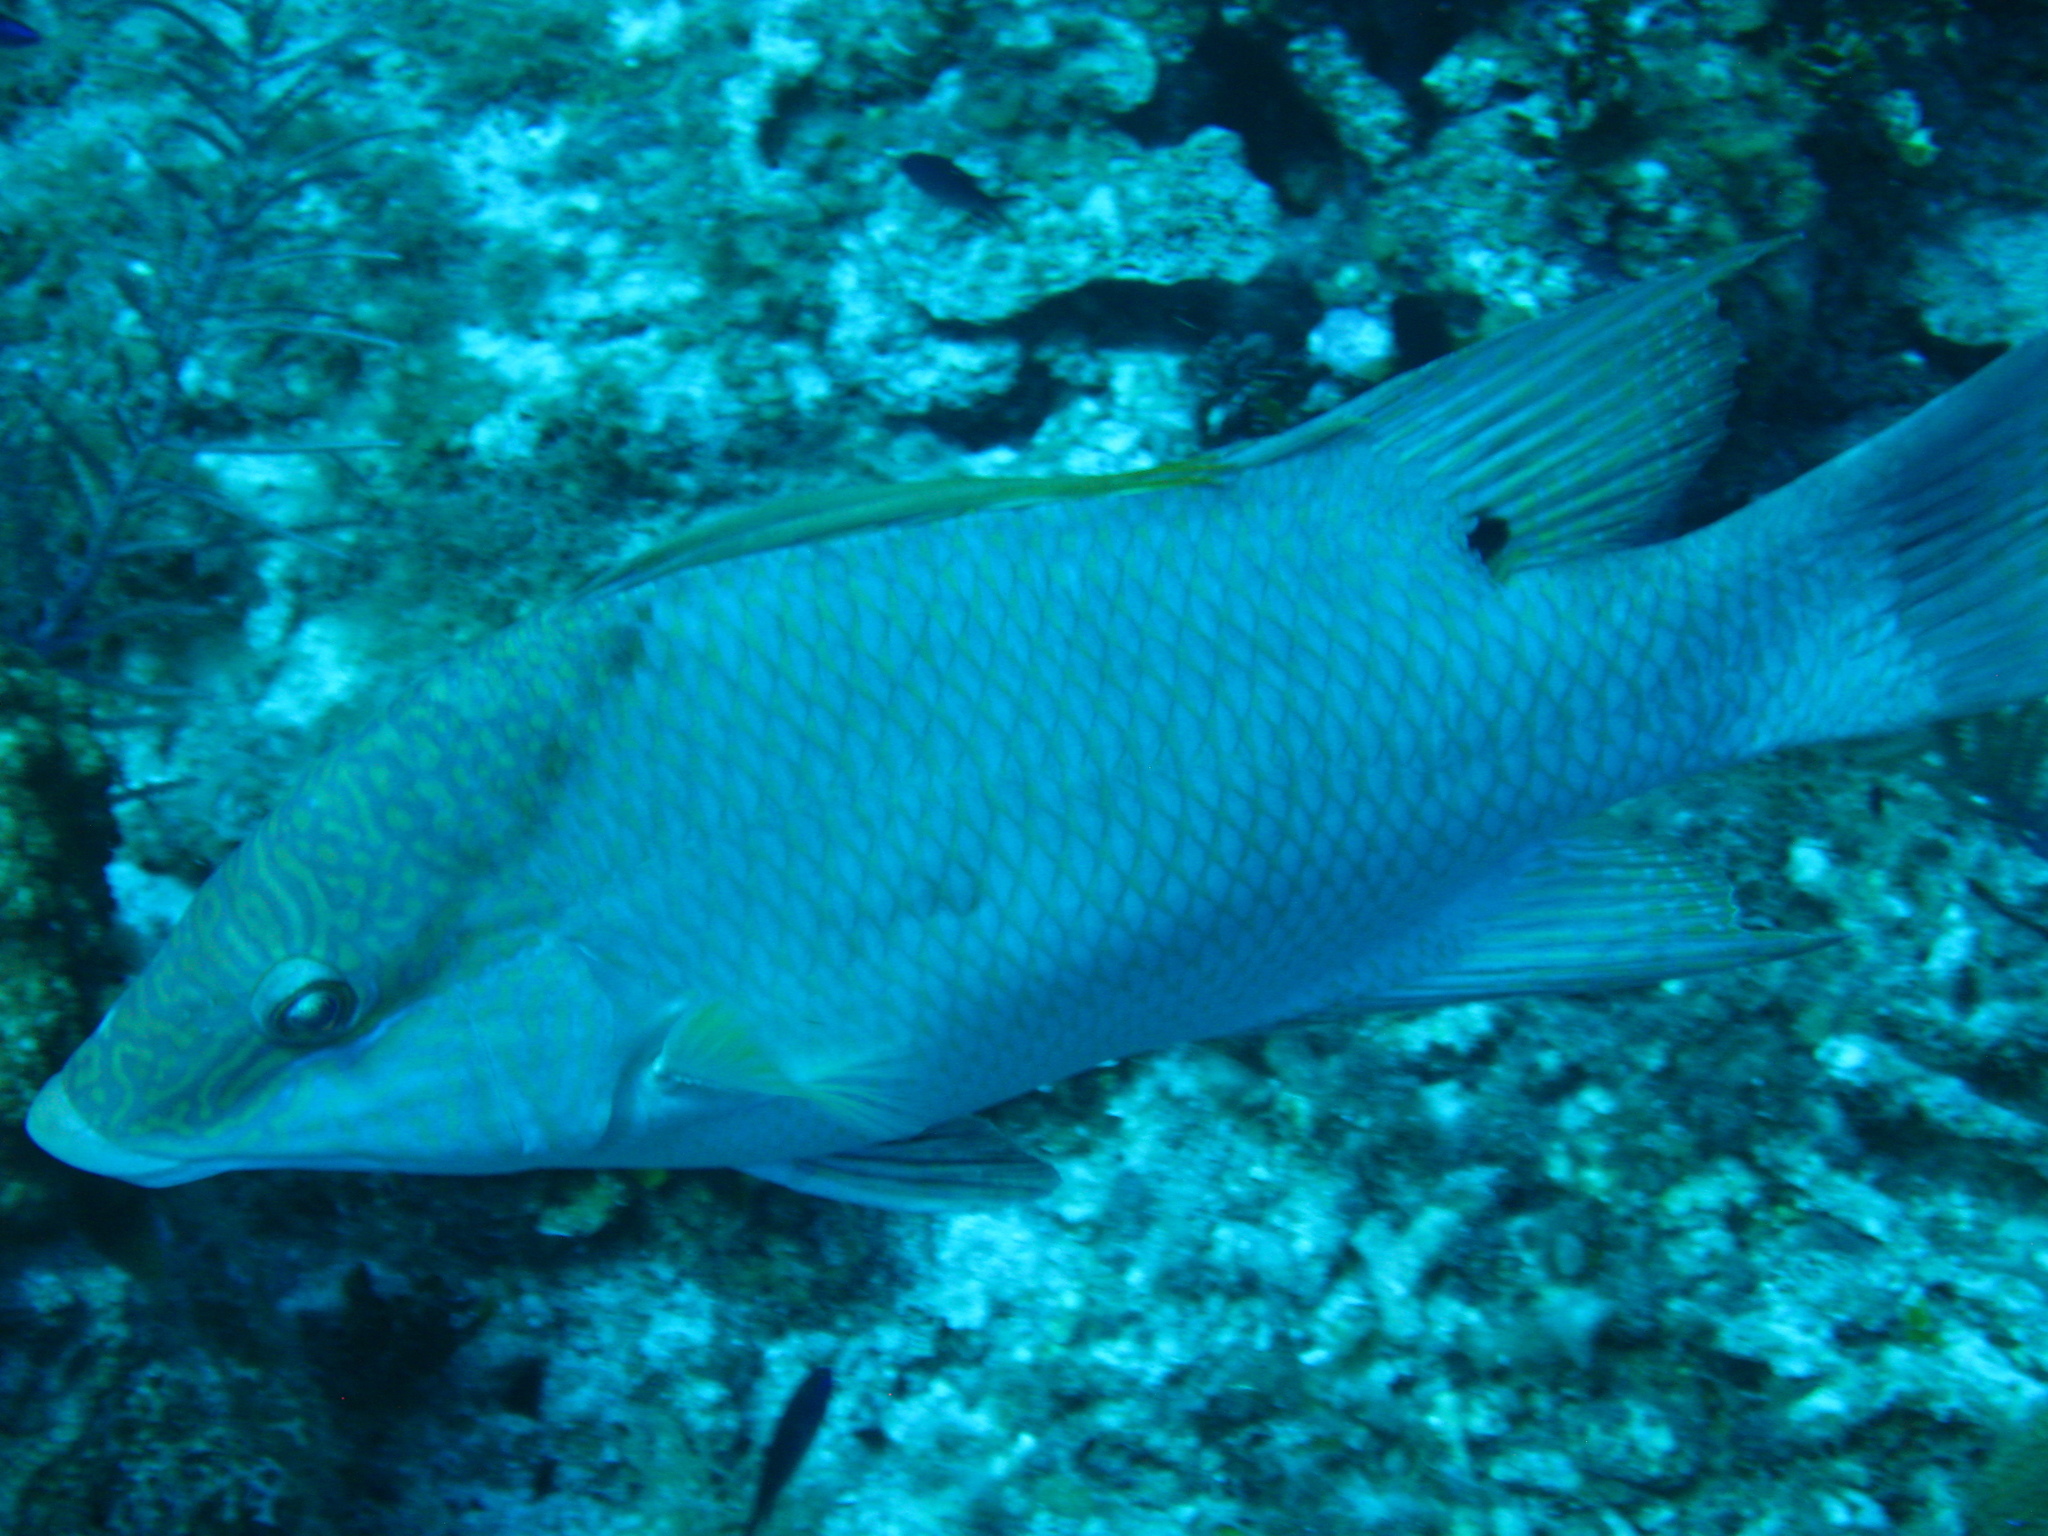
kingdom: Animalia
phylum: Chordata
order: Perciformes
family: Labridae
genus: Lachnolaimus
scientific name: Lachnolaimus maximus
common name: Hogfish
